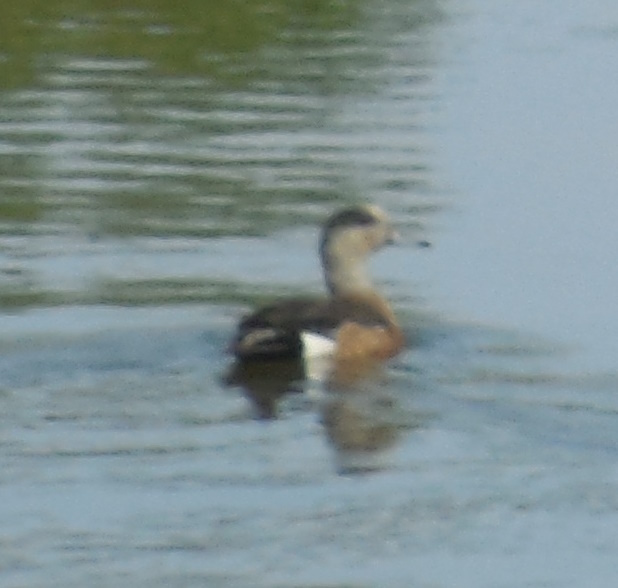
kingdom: Animalia
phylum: Chordata
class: Aves
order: Anseriformes
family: Anatidae
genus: Mareca
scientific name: Mareca americana
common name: American wigeon
